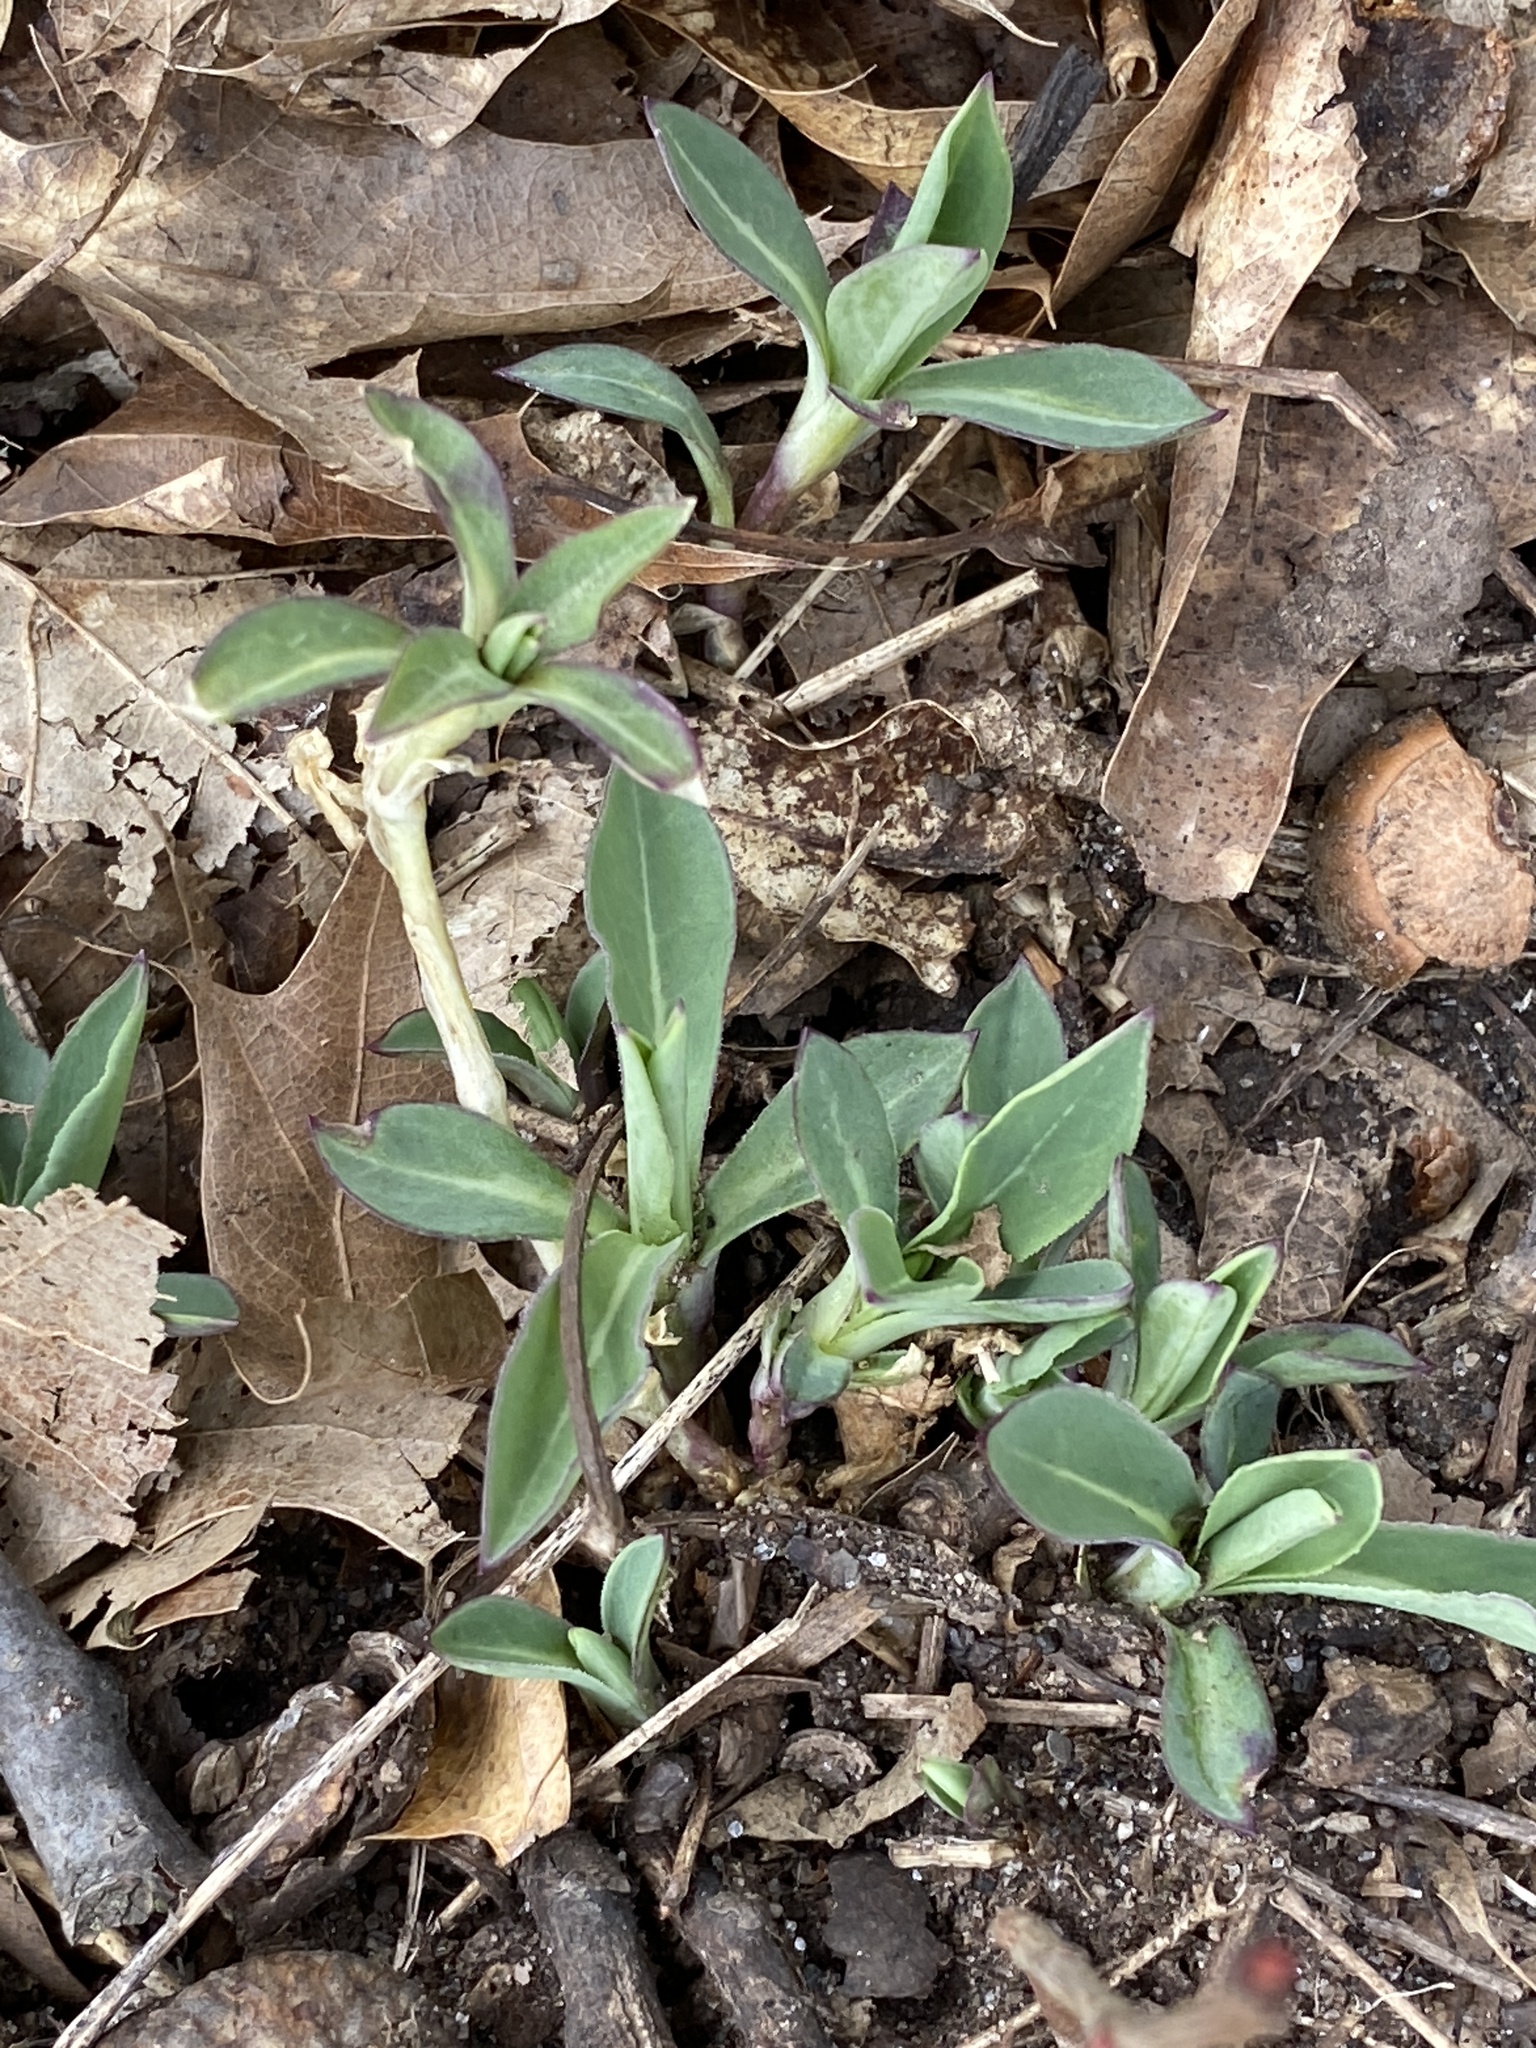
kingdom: Plantae
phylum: Tracheophyta
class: Magnoliopsida
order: Caryophyllales
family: Caryophyllaceae
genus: Silene
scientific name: Silene vulgaris
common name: Bladder campion
